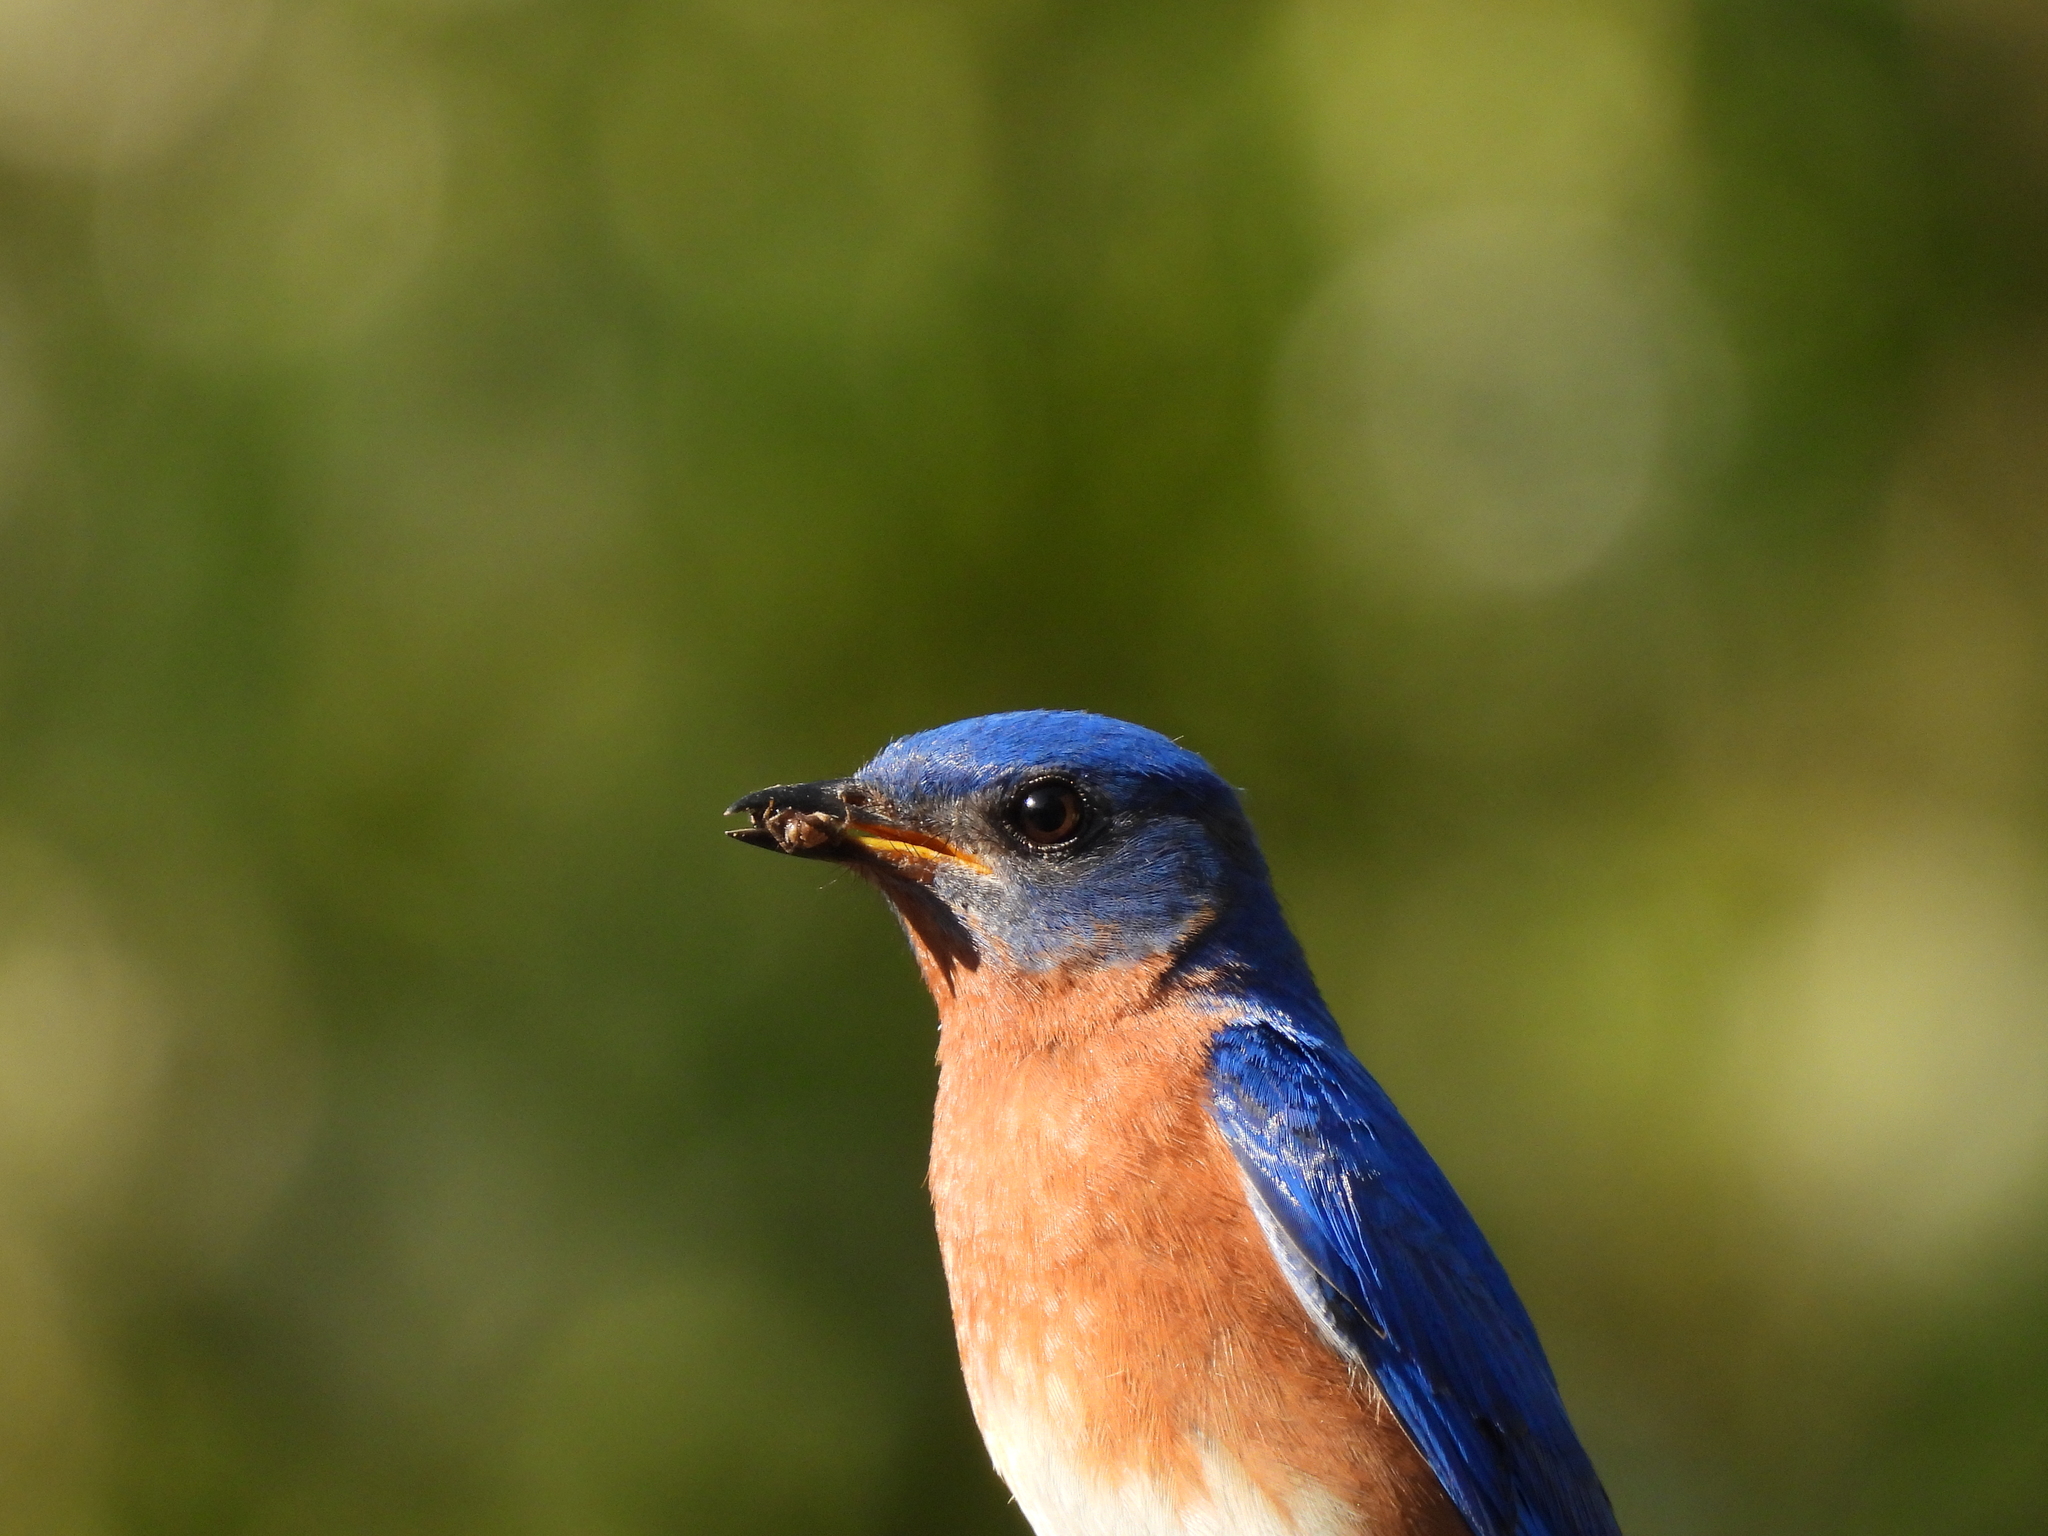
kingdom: Animalia
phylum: Chordata
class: Aves
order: Passeriformes
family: Turdidae
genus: Sialia
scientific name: Sialia sialis
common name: Eastern bluebird
